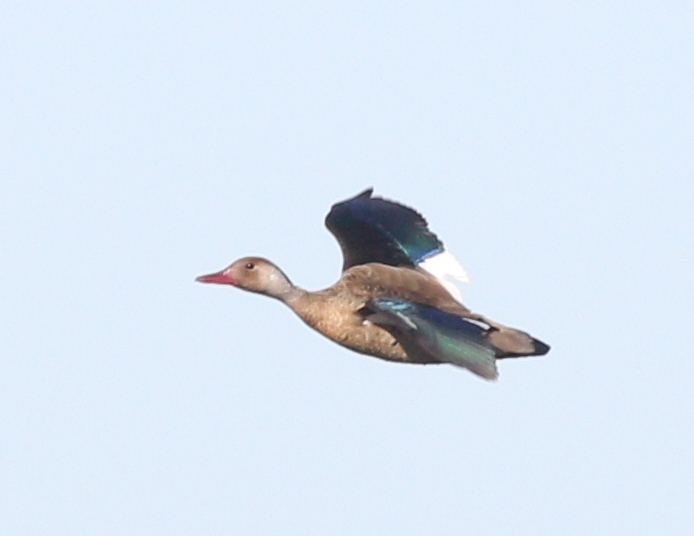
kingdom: Animalia
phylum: Chordata
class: Aves
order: Anseriformes
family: Anatidae
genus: Amazonetta
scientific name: Amazonetta brasiliensis
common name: Brazilian teal
